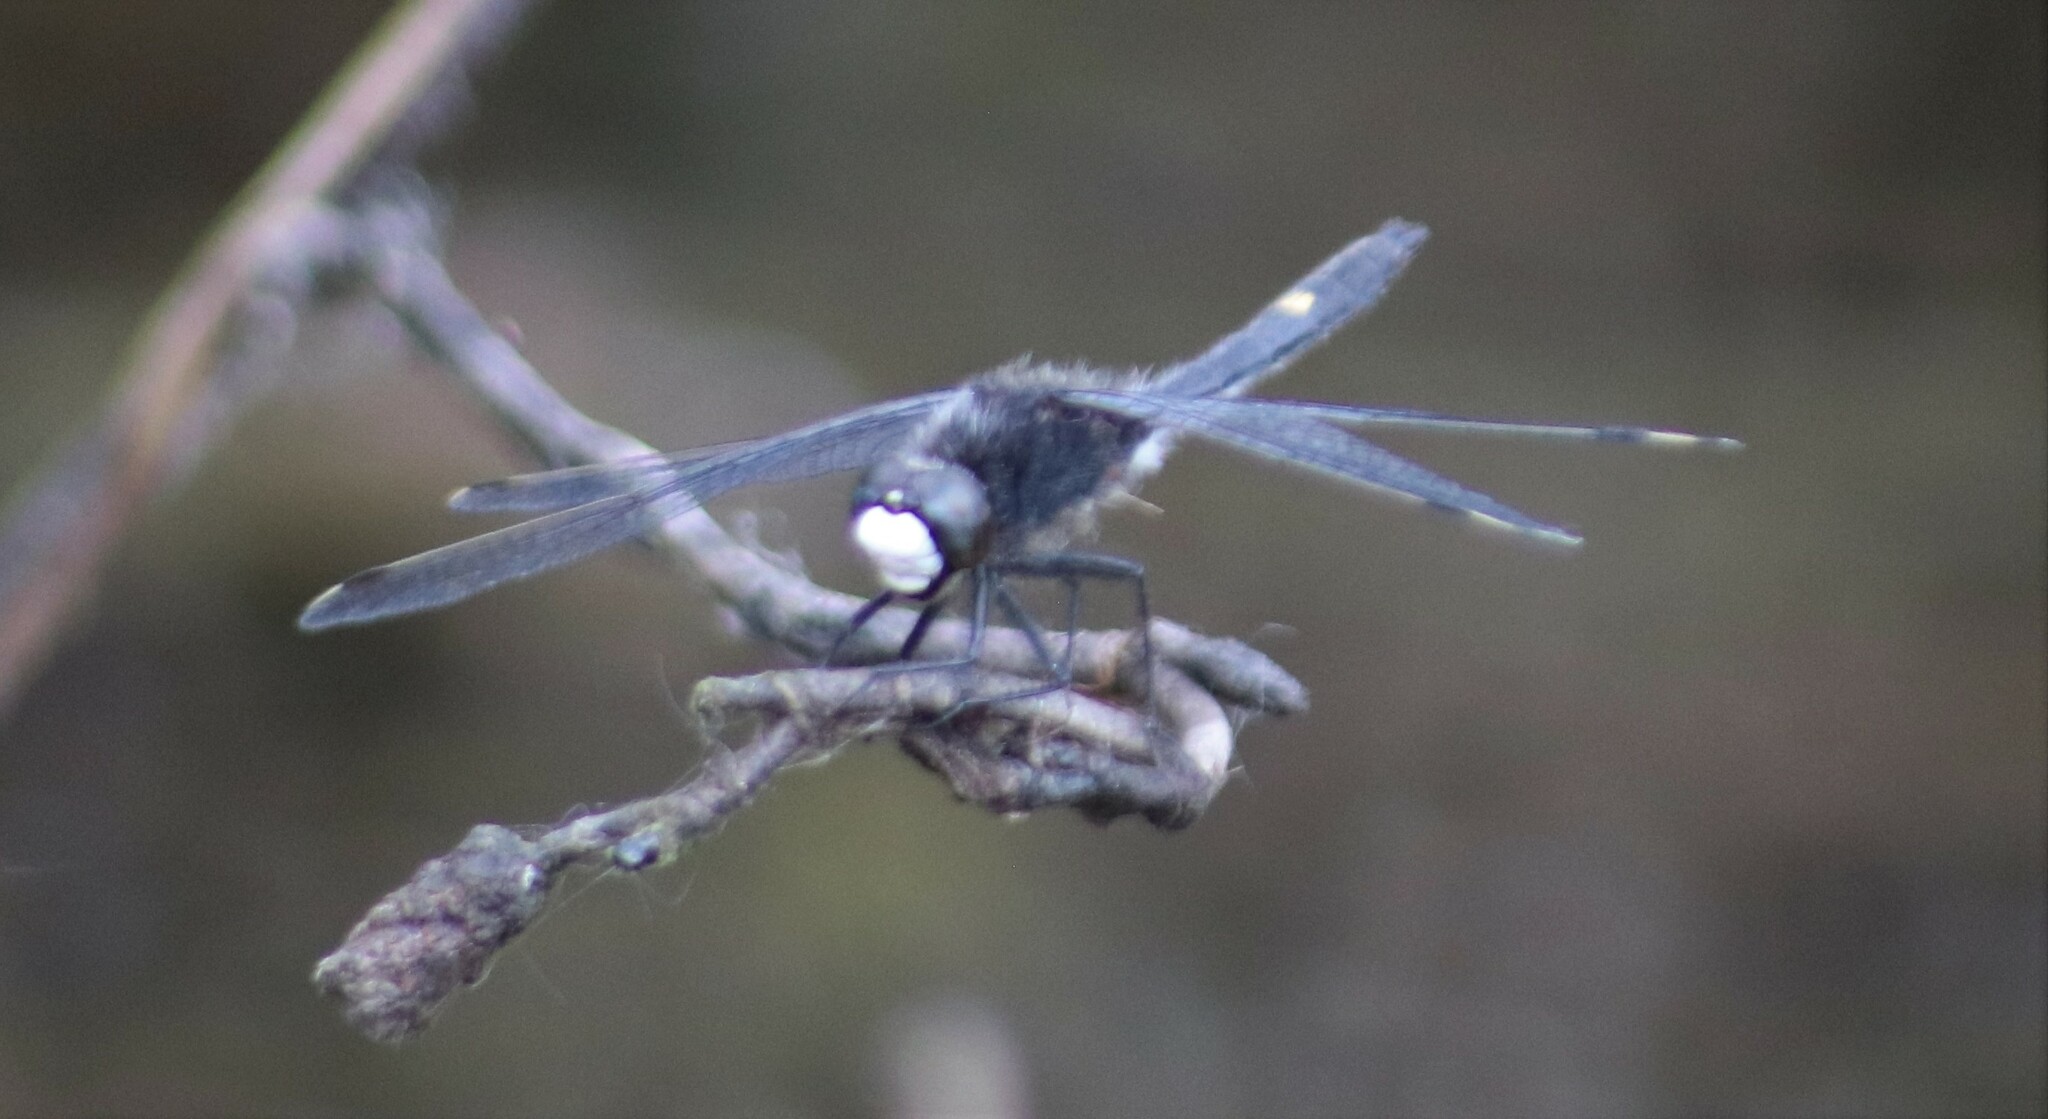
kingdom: Animalia
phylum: Arthropoda
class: Insecta
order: Odonata
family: Libellulidae
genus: Leucorrhinia
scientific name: Leucorrhinia intacta
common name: Dot-tailed whiteface
